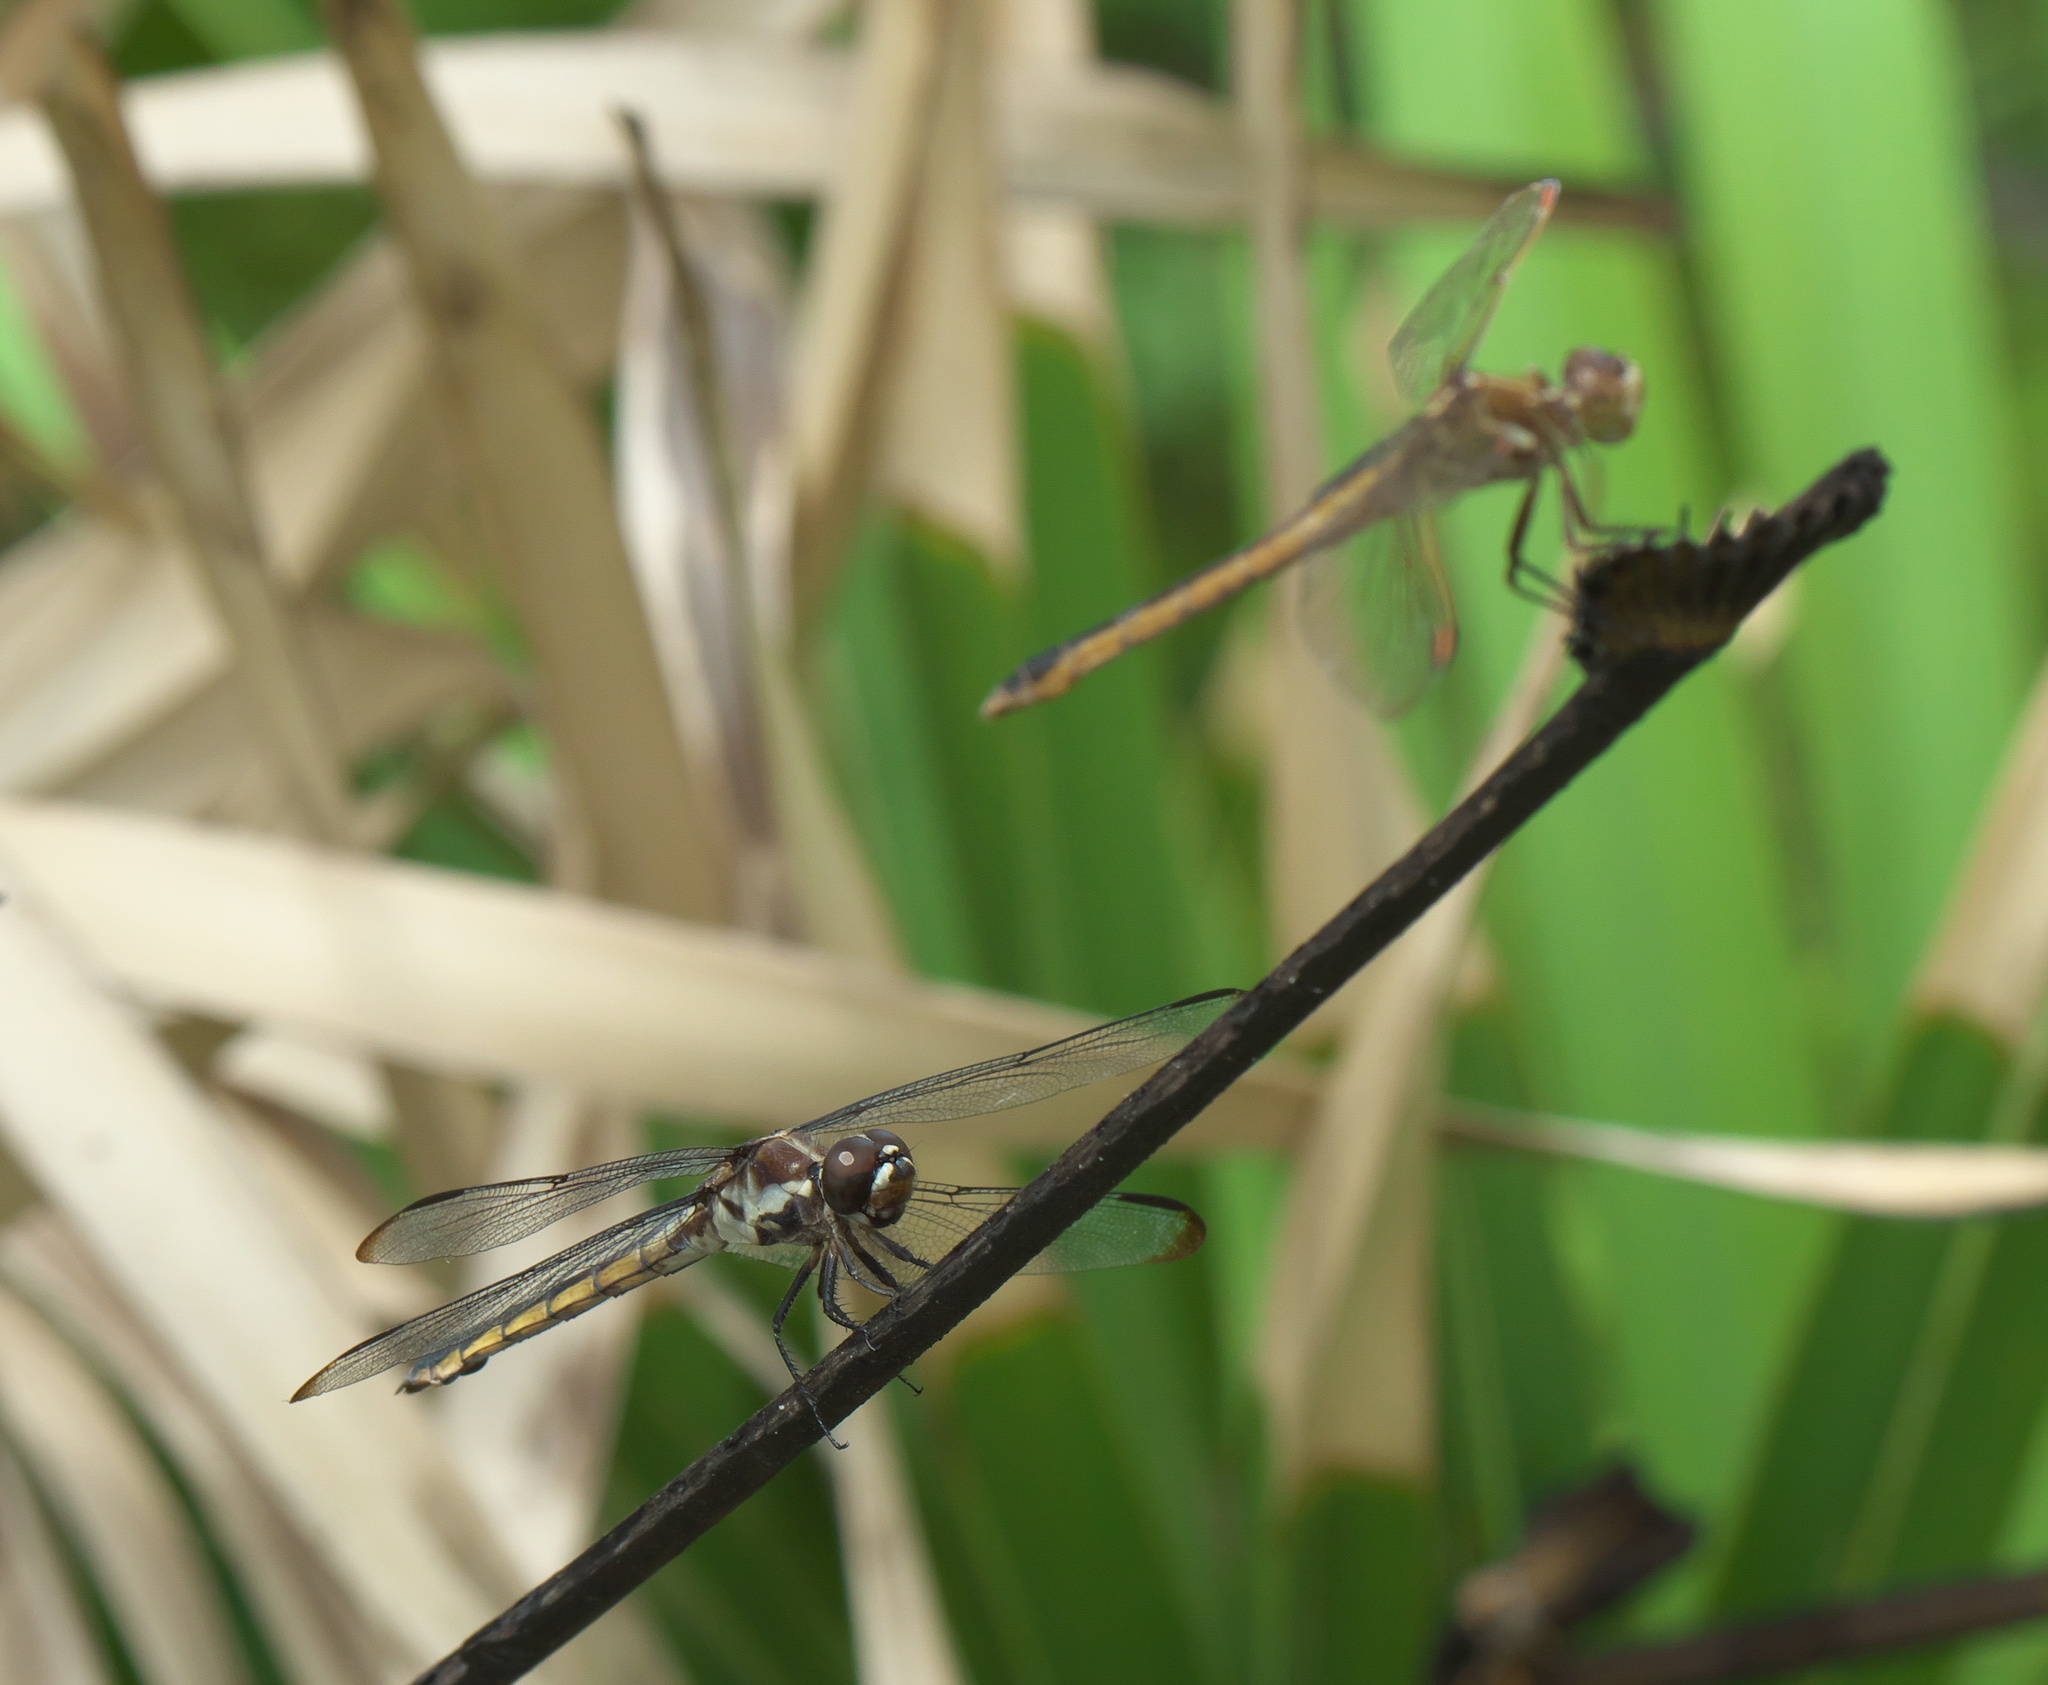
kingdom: Animalia
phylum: Arthropoda
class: Insecta
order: Odonata
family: Libellulidae
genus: Libellula
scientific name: Libellula axilena
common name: Bar-winged skimmer
